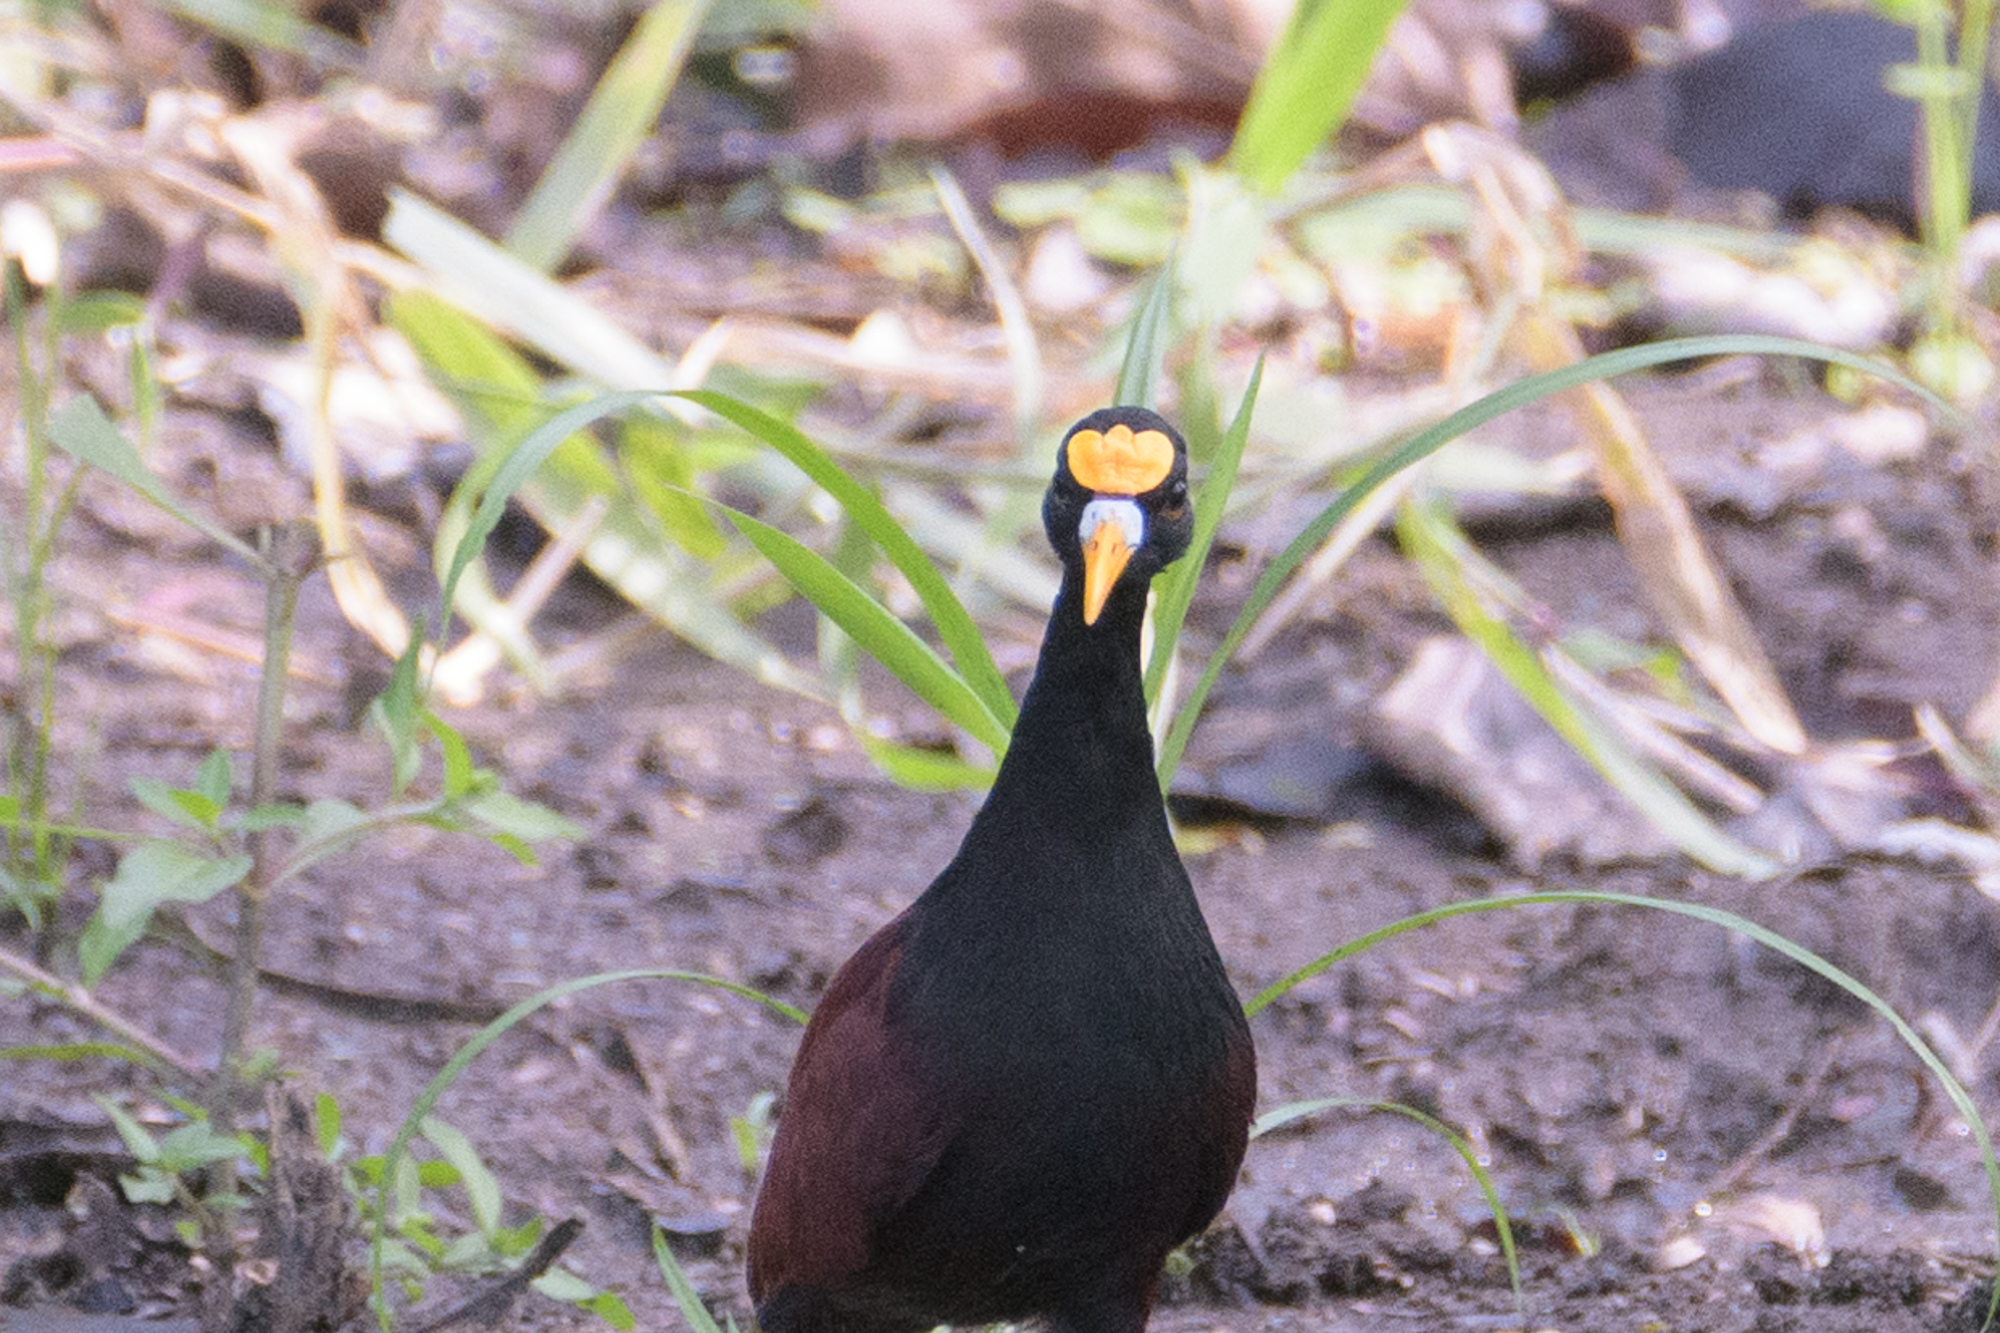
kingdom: Animalia
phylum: Chordata
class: Aves
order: Charadriiformes
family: Jacanidae
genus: Jacana
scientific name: Jacana spinosa
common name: Northern jacana
